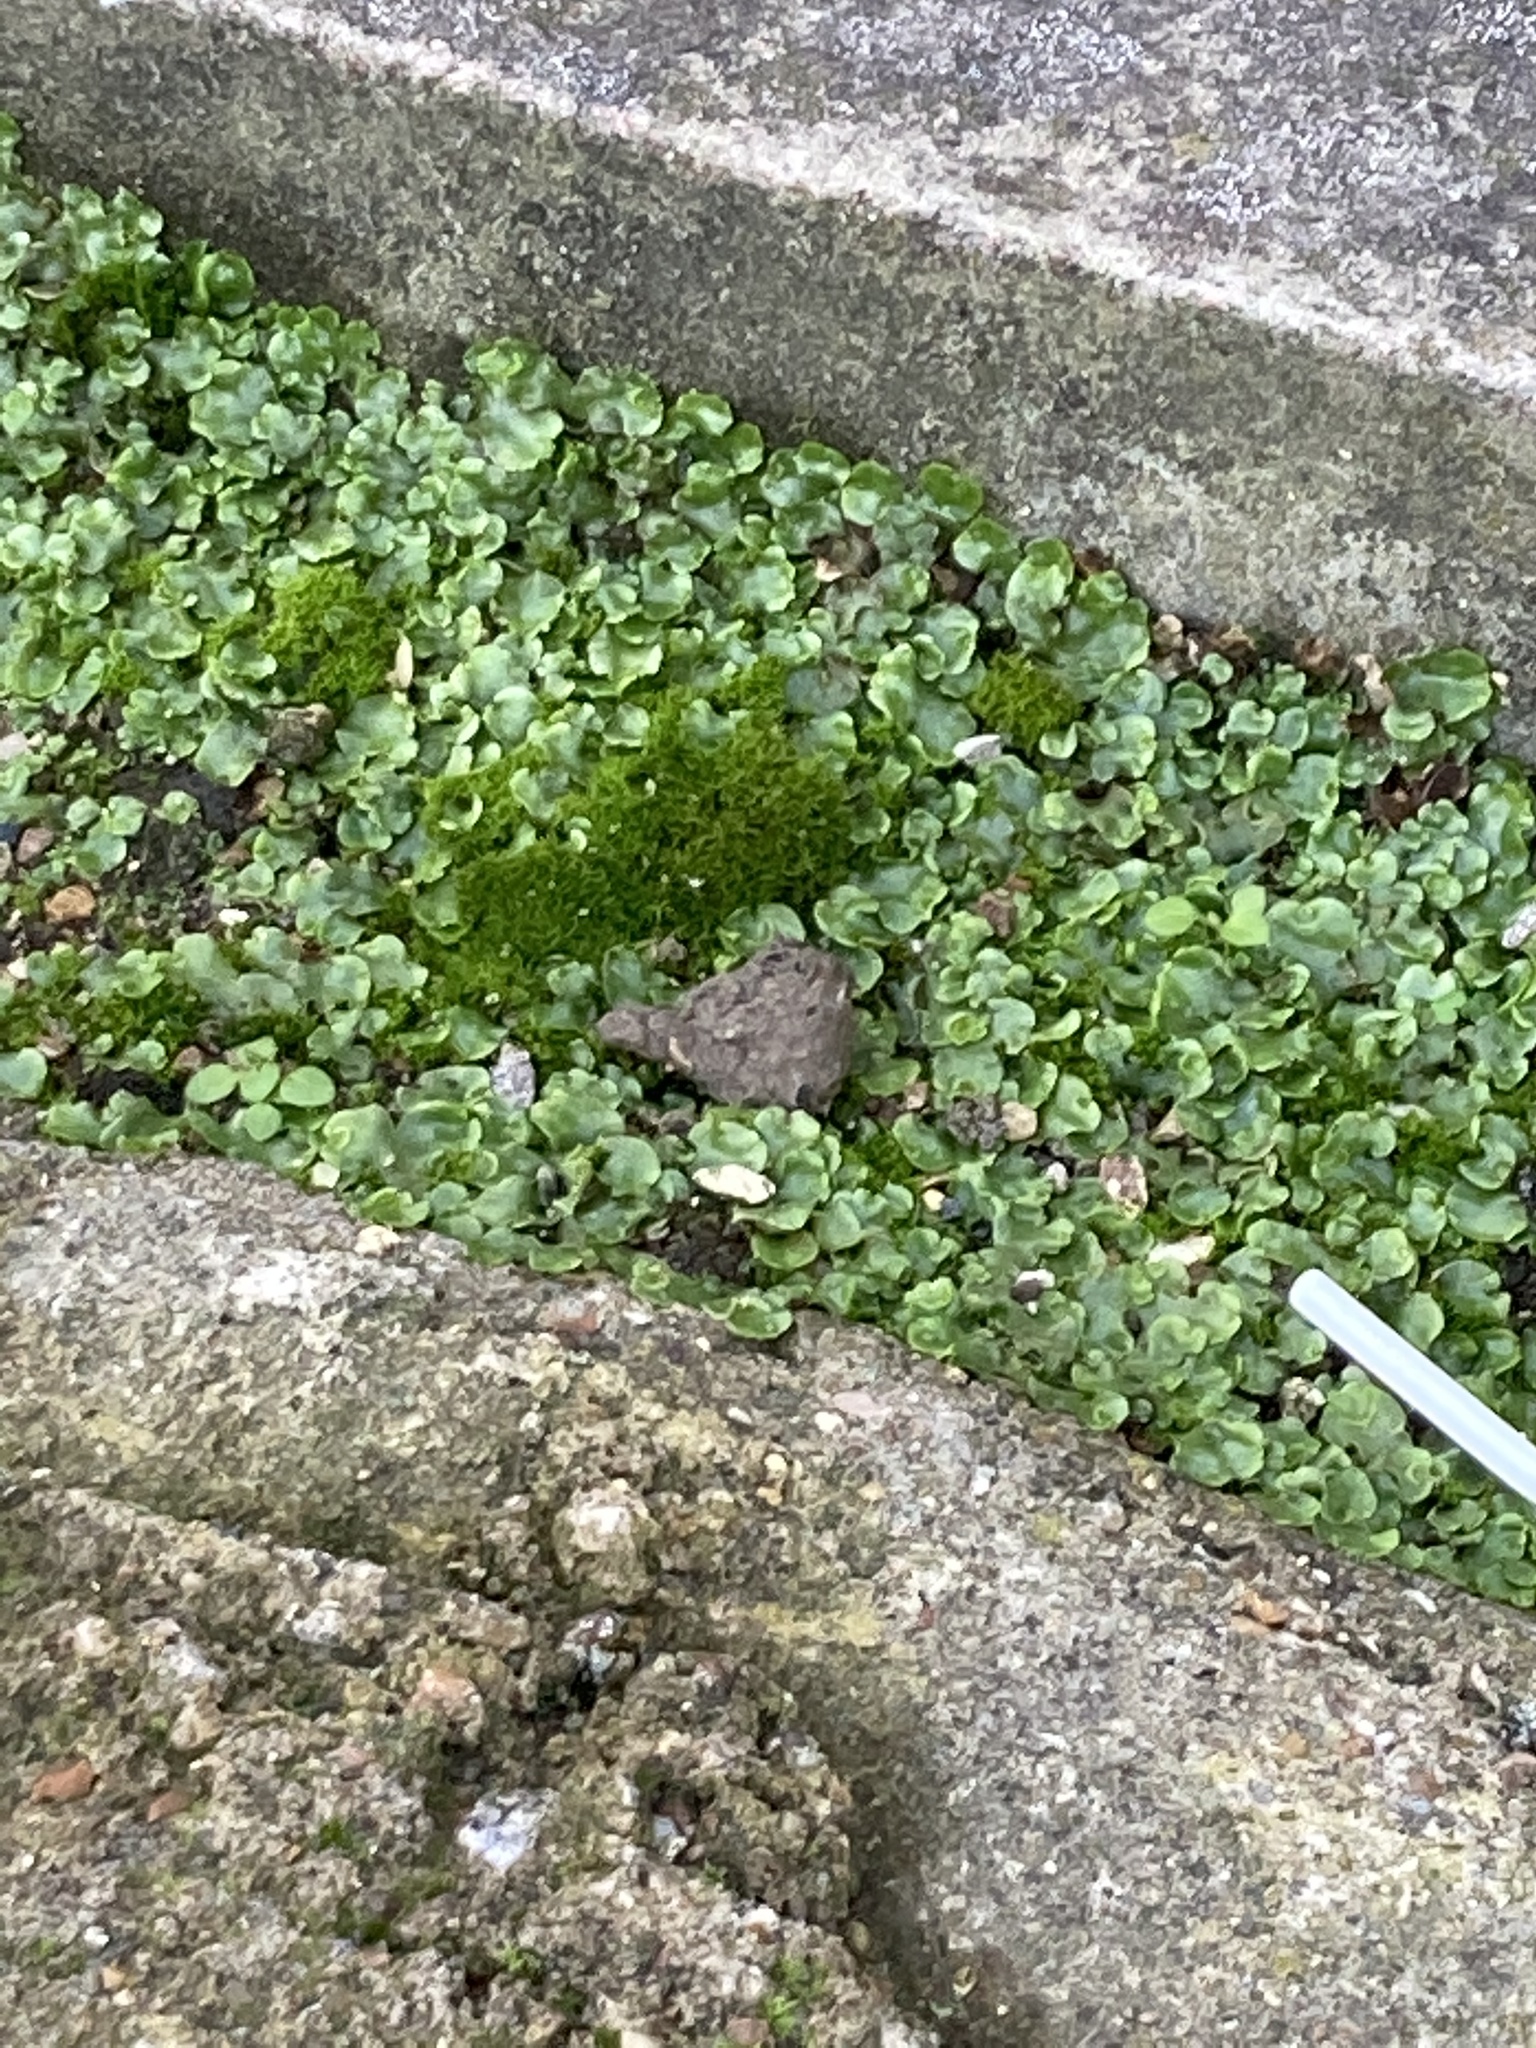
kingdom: Plantae
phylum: Marchantiophyta
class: Marchantiopsida
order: Lunulariales
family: Lunulariaceae
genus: Lunularia
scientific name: Lunularia cruciata
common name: Crescent-cup liverwort
